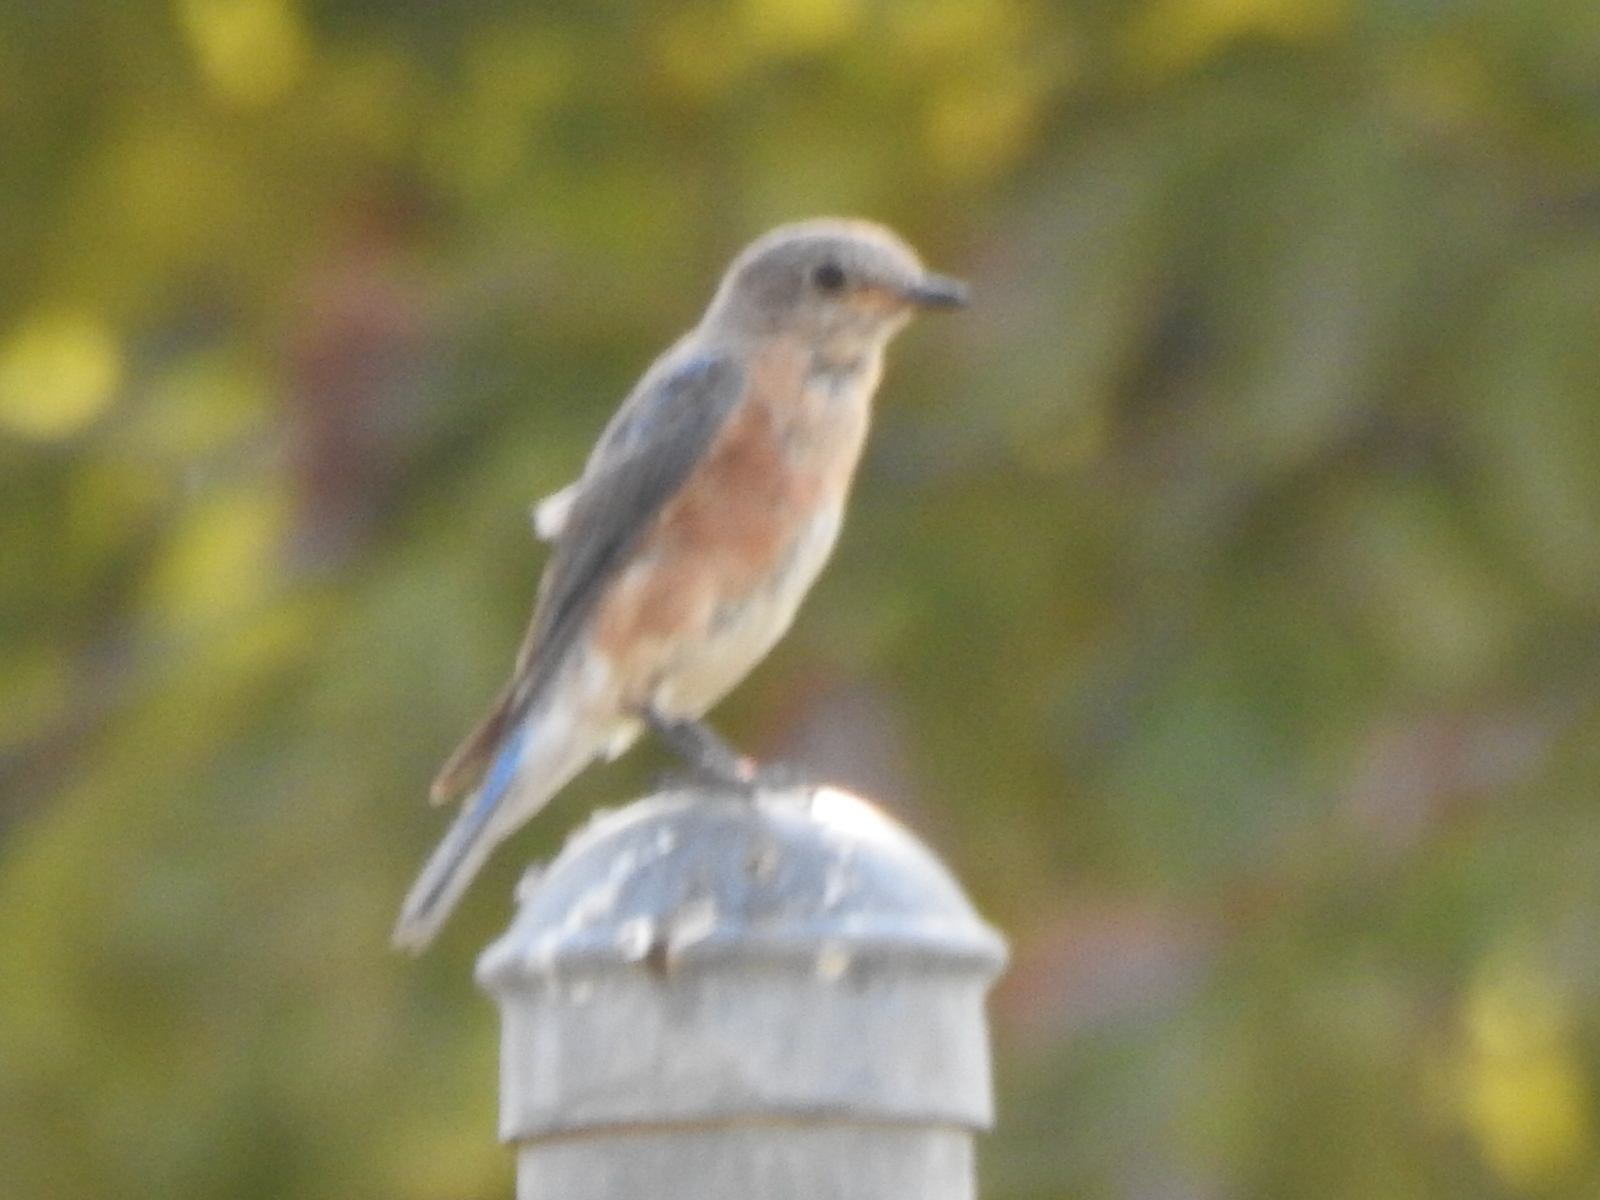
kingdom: Animalia
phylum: Chordata
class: Aves
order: Passeriformes
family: Turdidae
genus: Sialia
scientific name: Sialia sialis
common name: Eastern bluebird
